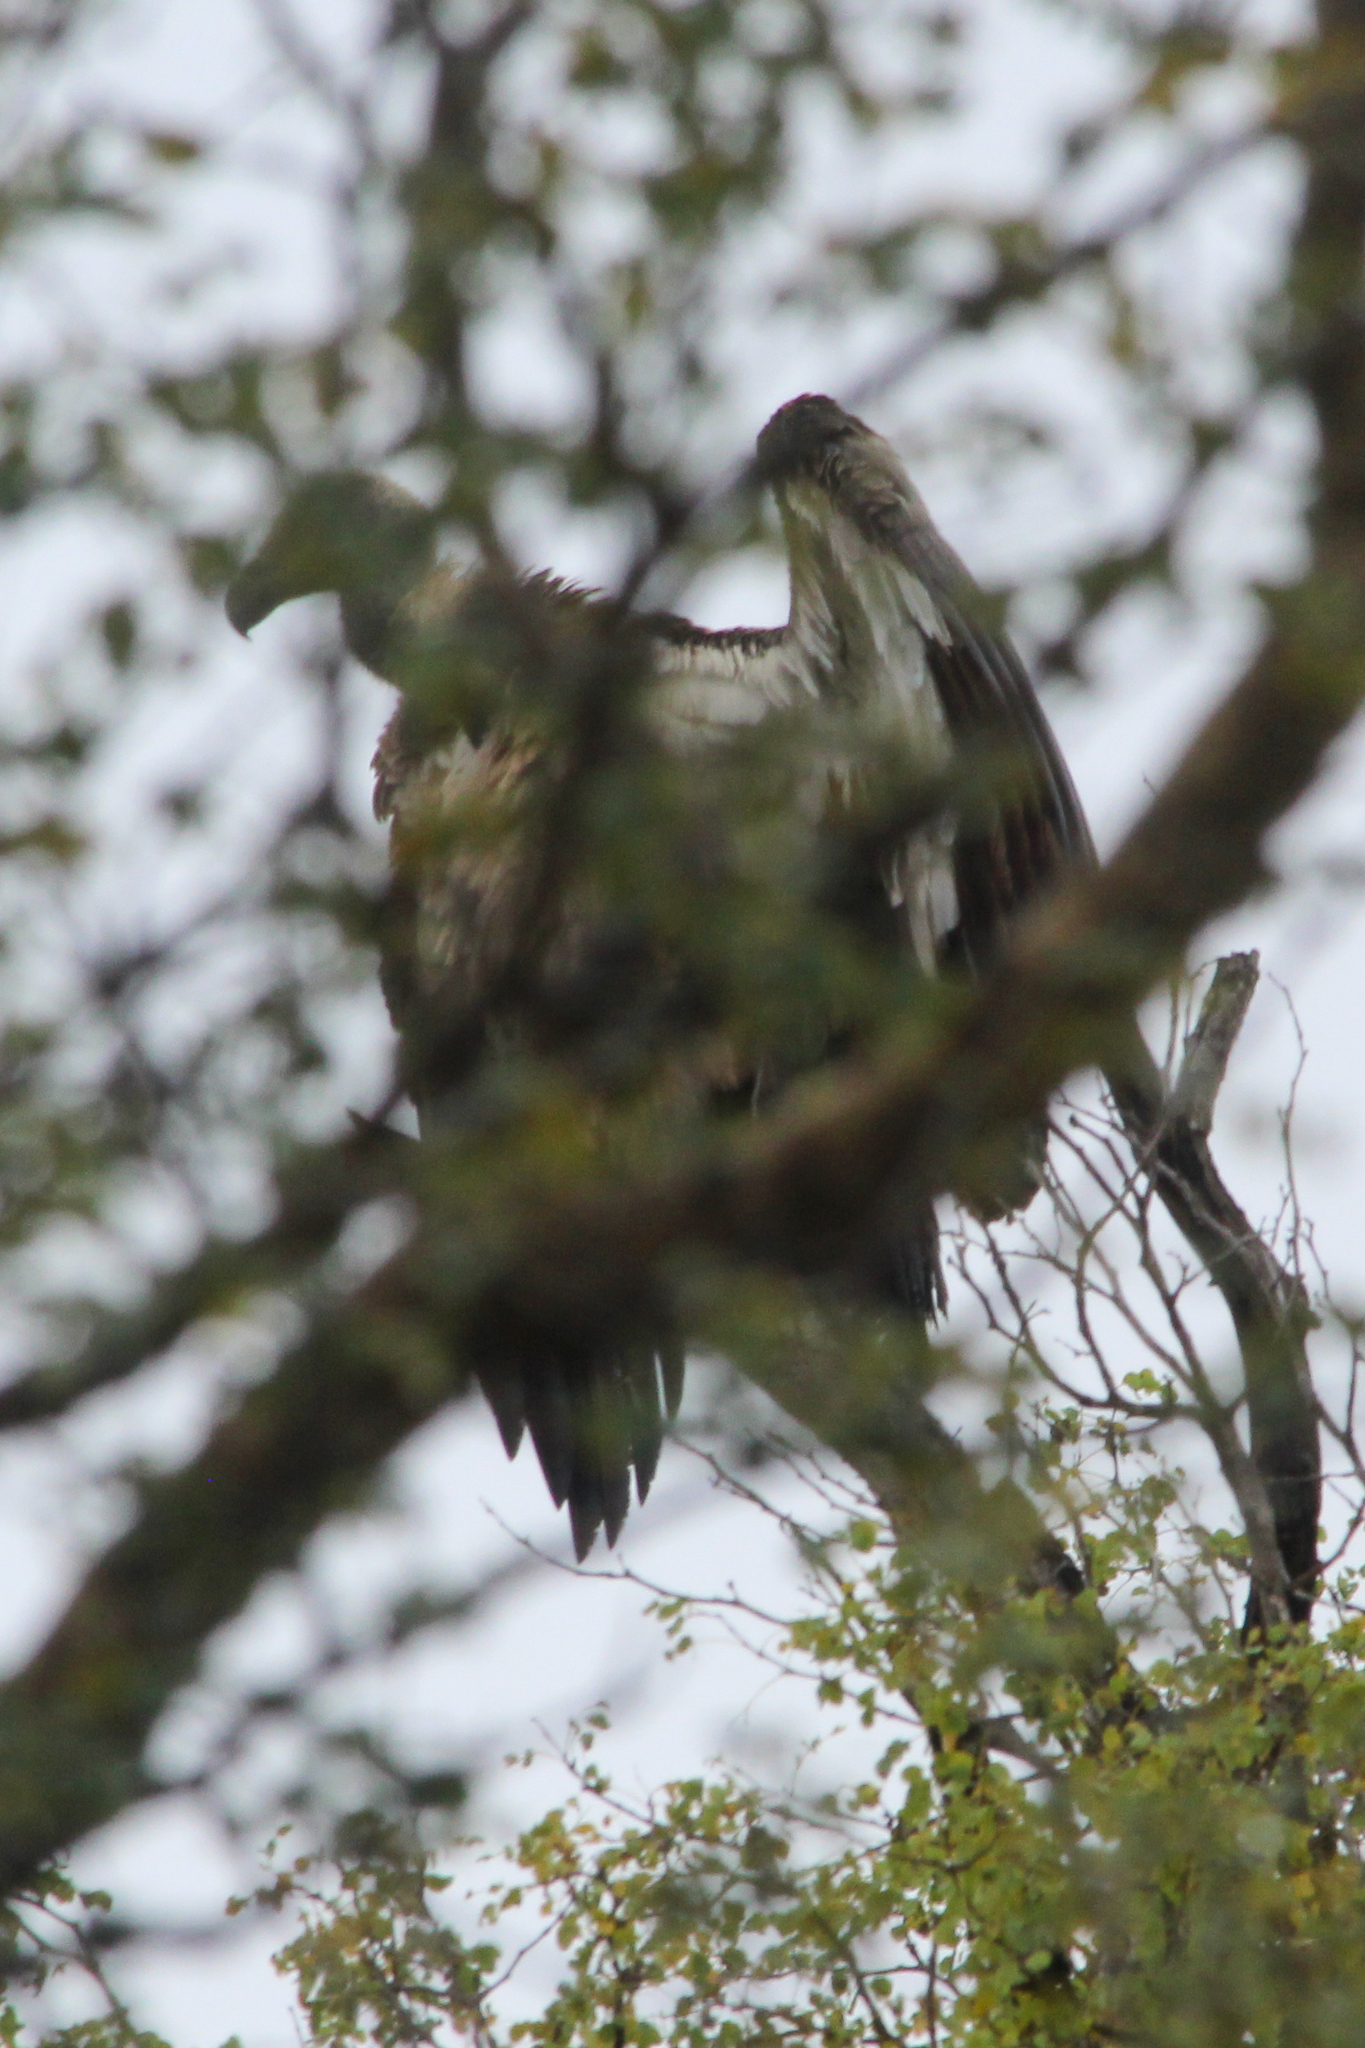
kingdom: Animalia
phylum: Chordata
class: Aves
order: Accipitriformes
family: Accipitridae
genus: Gyps
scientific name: Gyps africanus
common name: White-backed vulture
